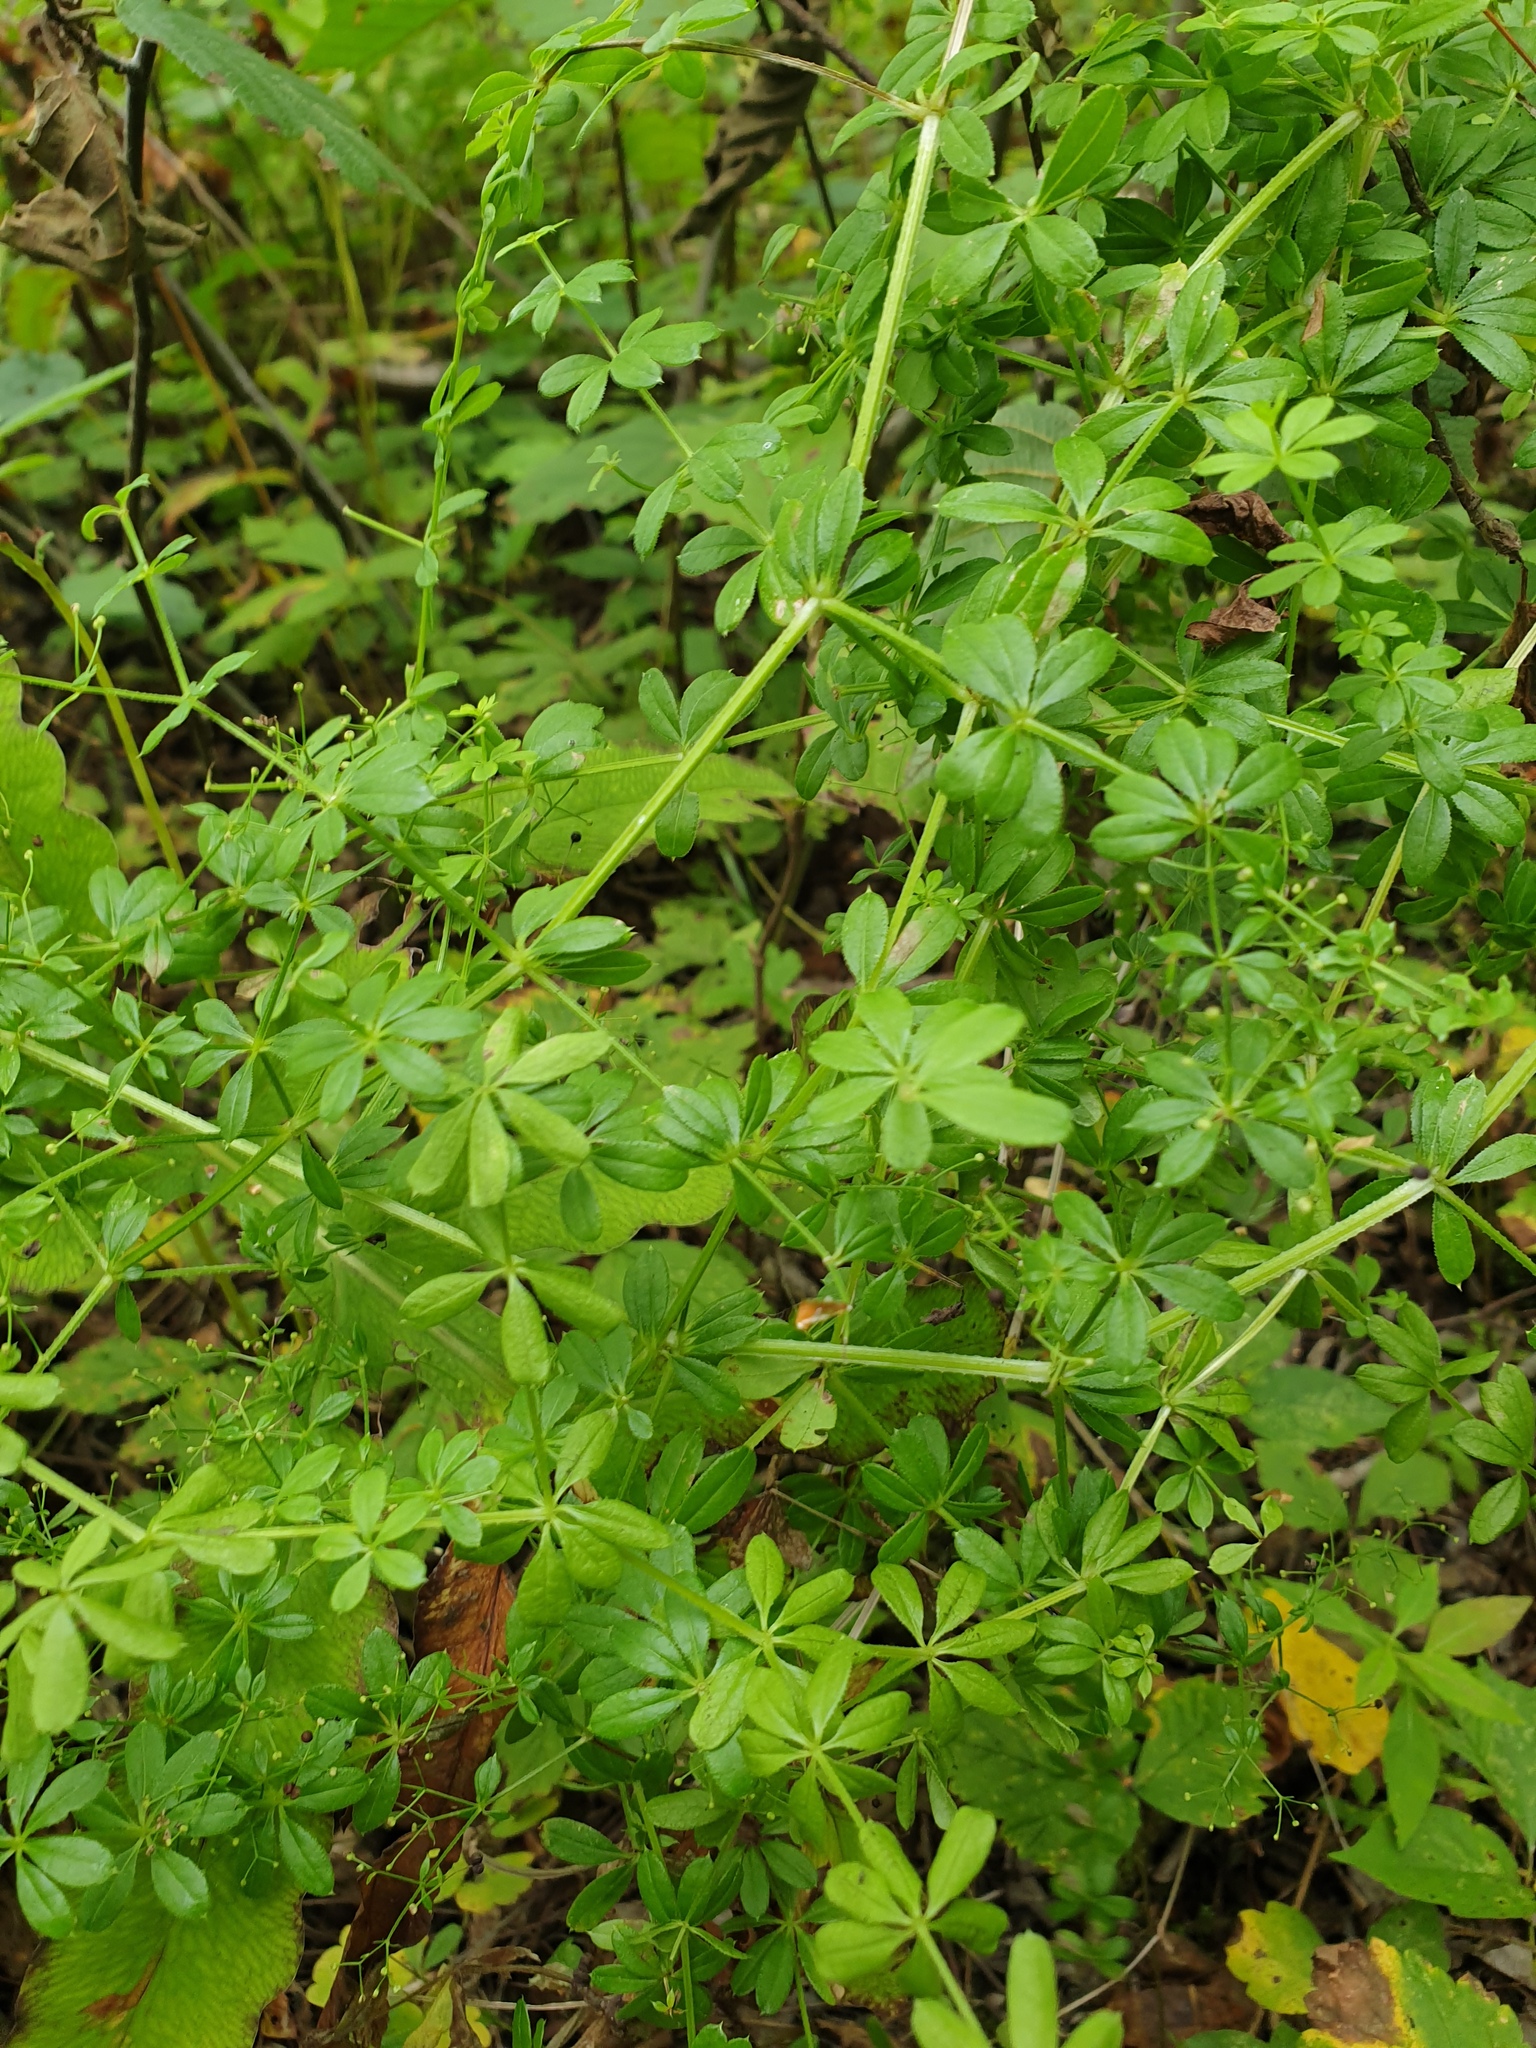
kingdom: Plantae
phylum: Tracheophyta
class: Magnoliopsida
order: Gentianales
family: Rubiaceae
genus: Galium
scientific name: Galium asprellum
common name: Rough bedstraw
